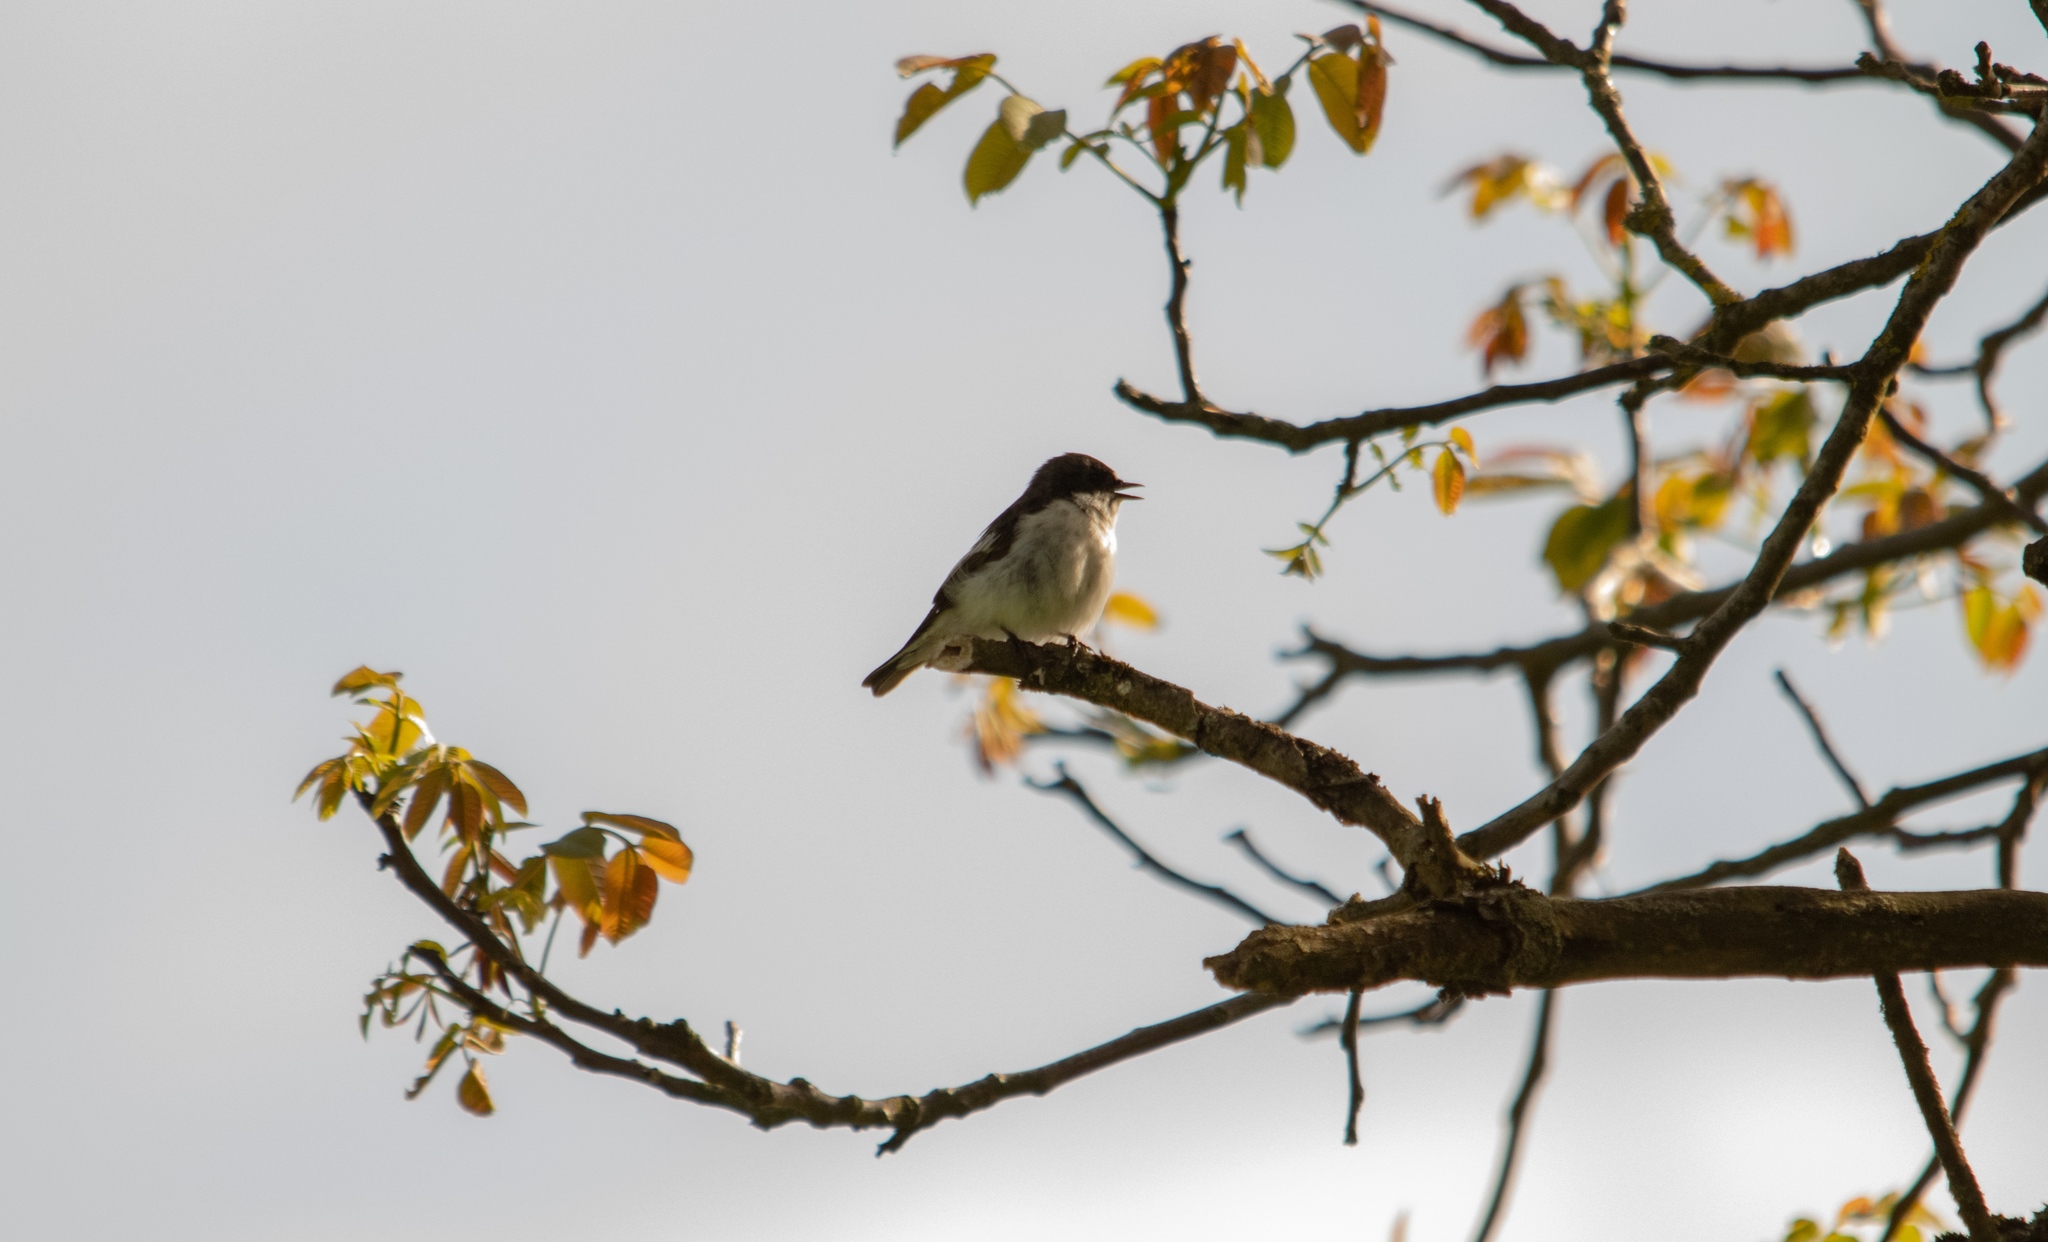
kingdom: Animalia
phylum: Chordata
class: Aves
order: Passeriformes
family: Muscicapidae
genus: Ficedula
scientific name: Ficedula hypoleuca
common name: European pied flycatcher
